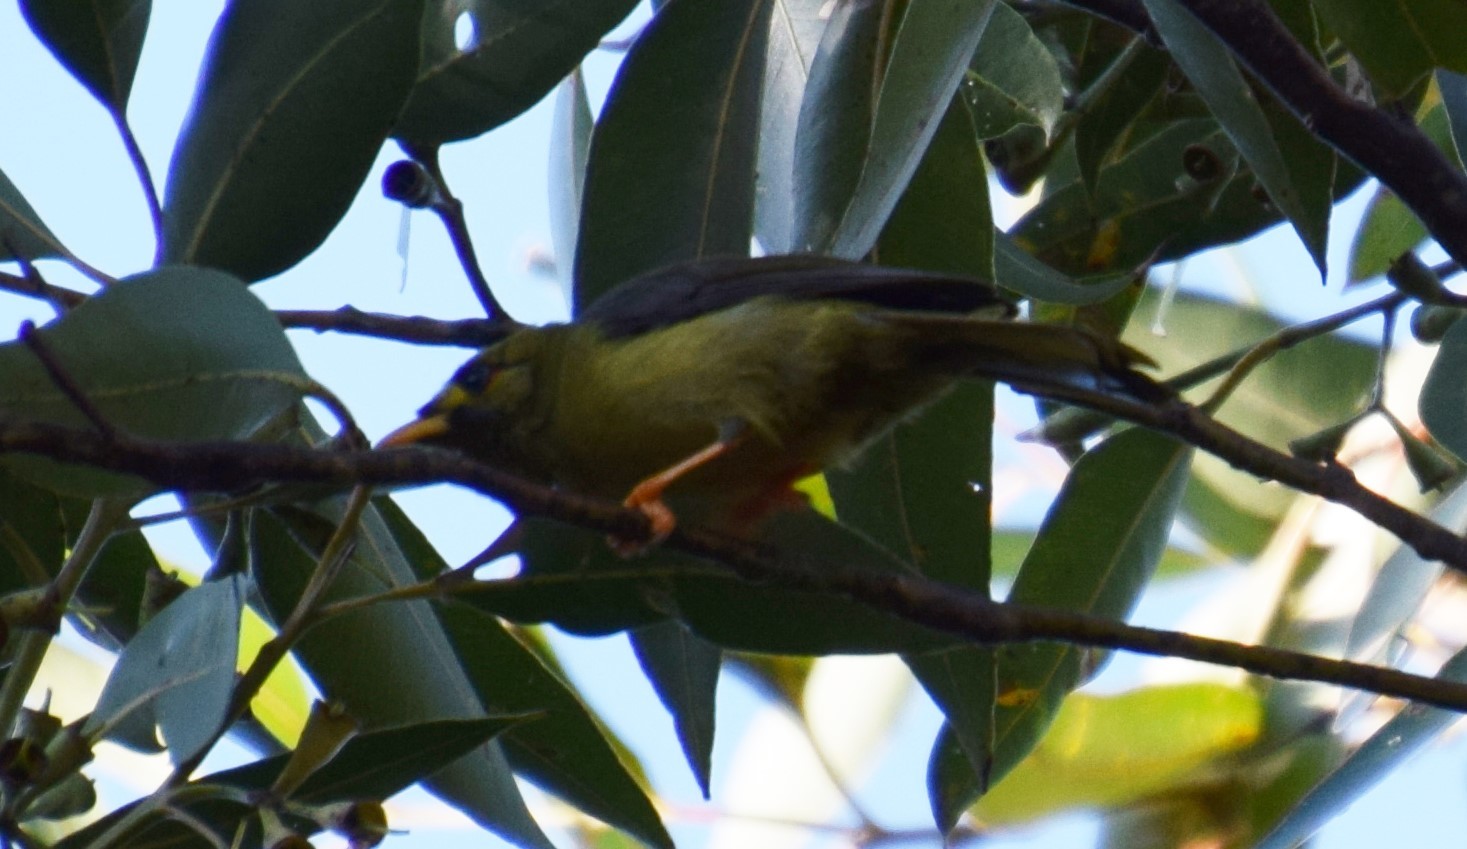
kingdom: Animalia
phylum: Chordata
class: Aves
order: Passeriformes
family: Meliphagidae
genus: Manorina
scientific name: Manorina melanophrys
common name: Bell miner
